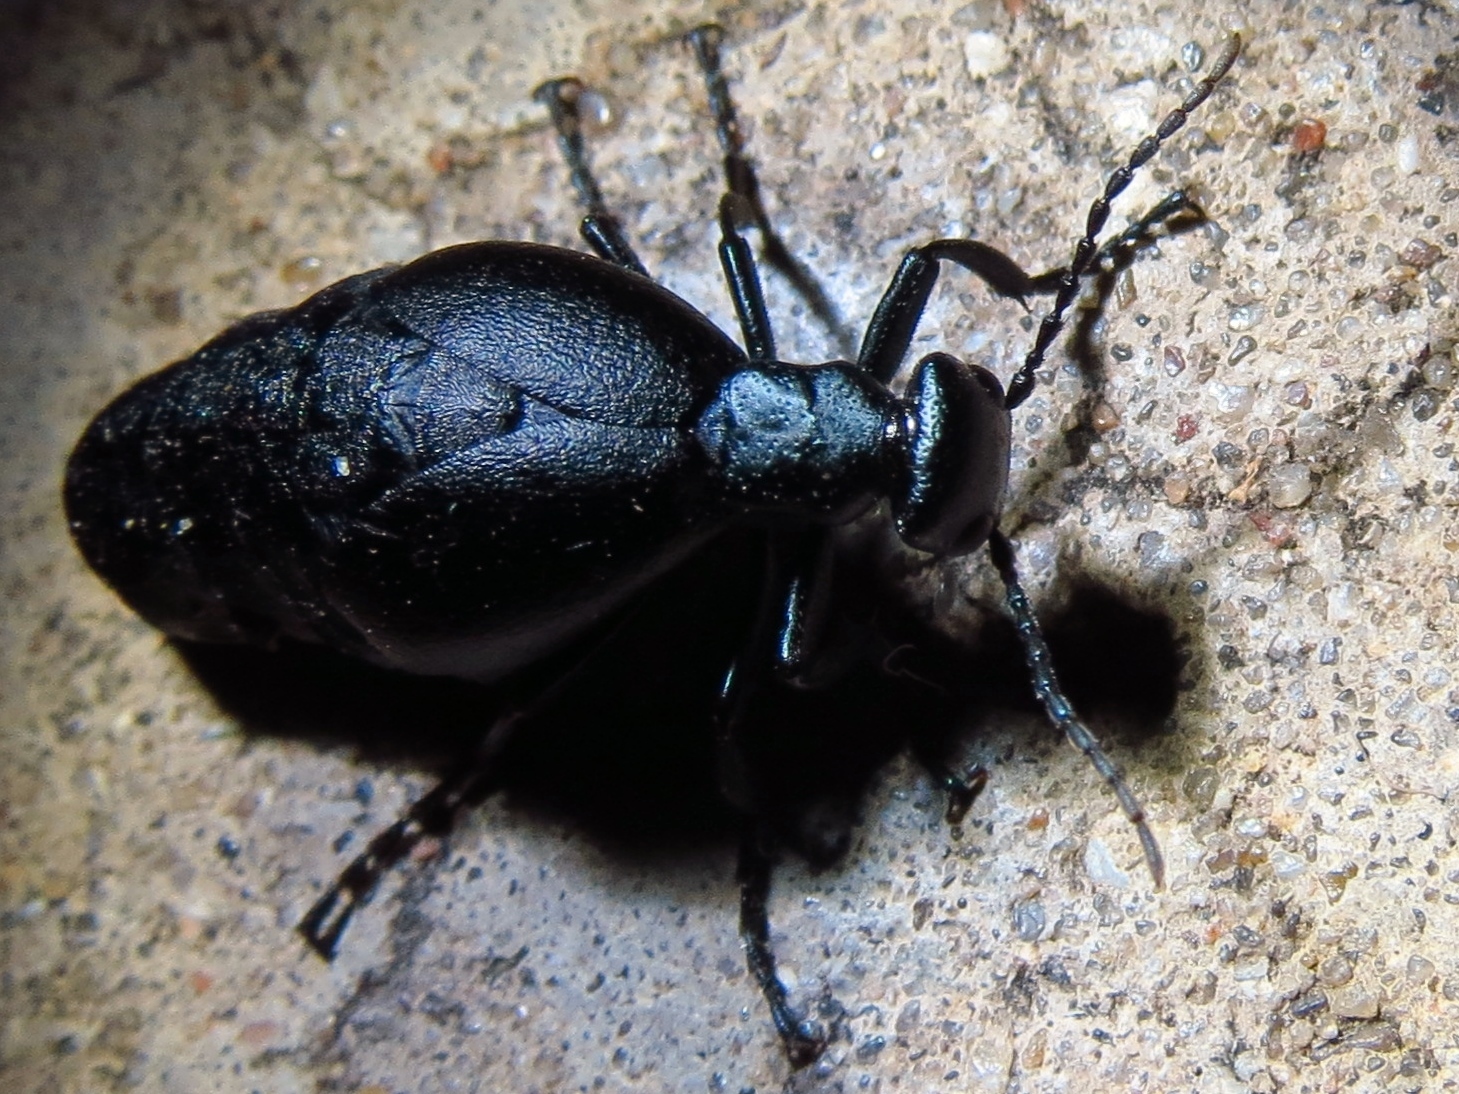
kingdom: Animalia
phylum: Arthropoda
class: Insecta
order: Coleoptera
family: Meloidae
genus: Meloe
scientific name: Meloe americanus
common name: Buttercup oil beetle
